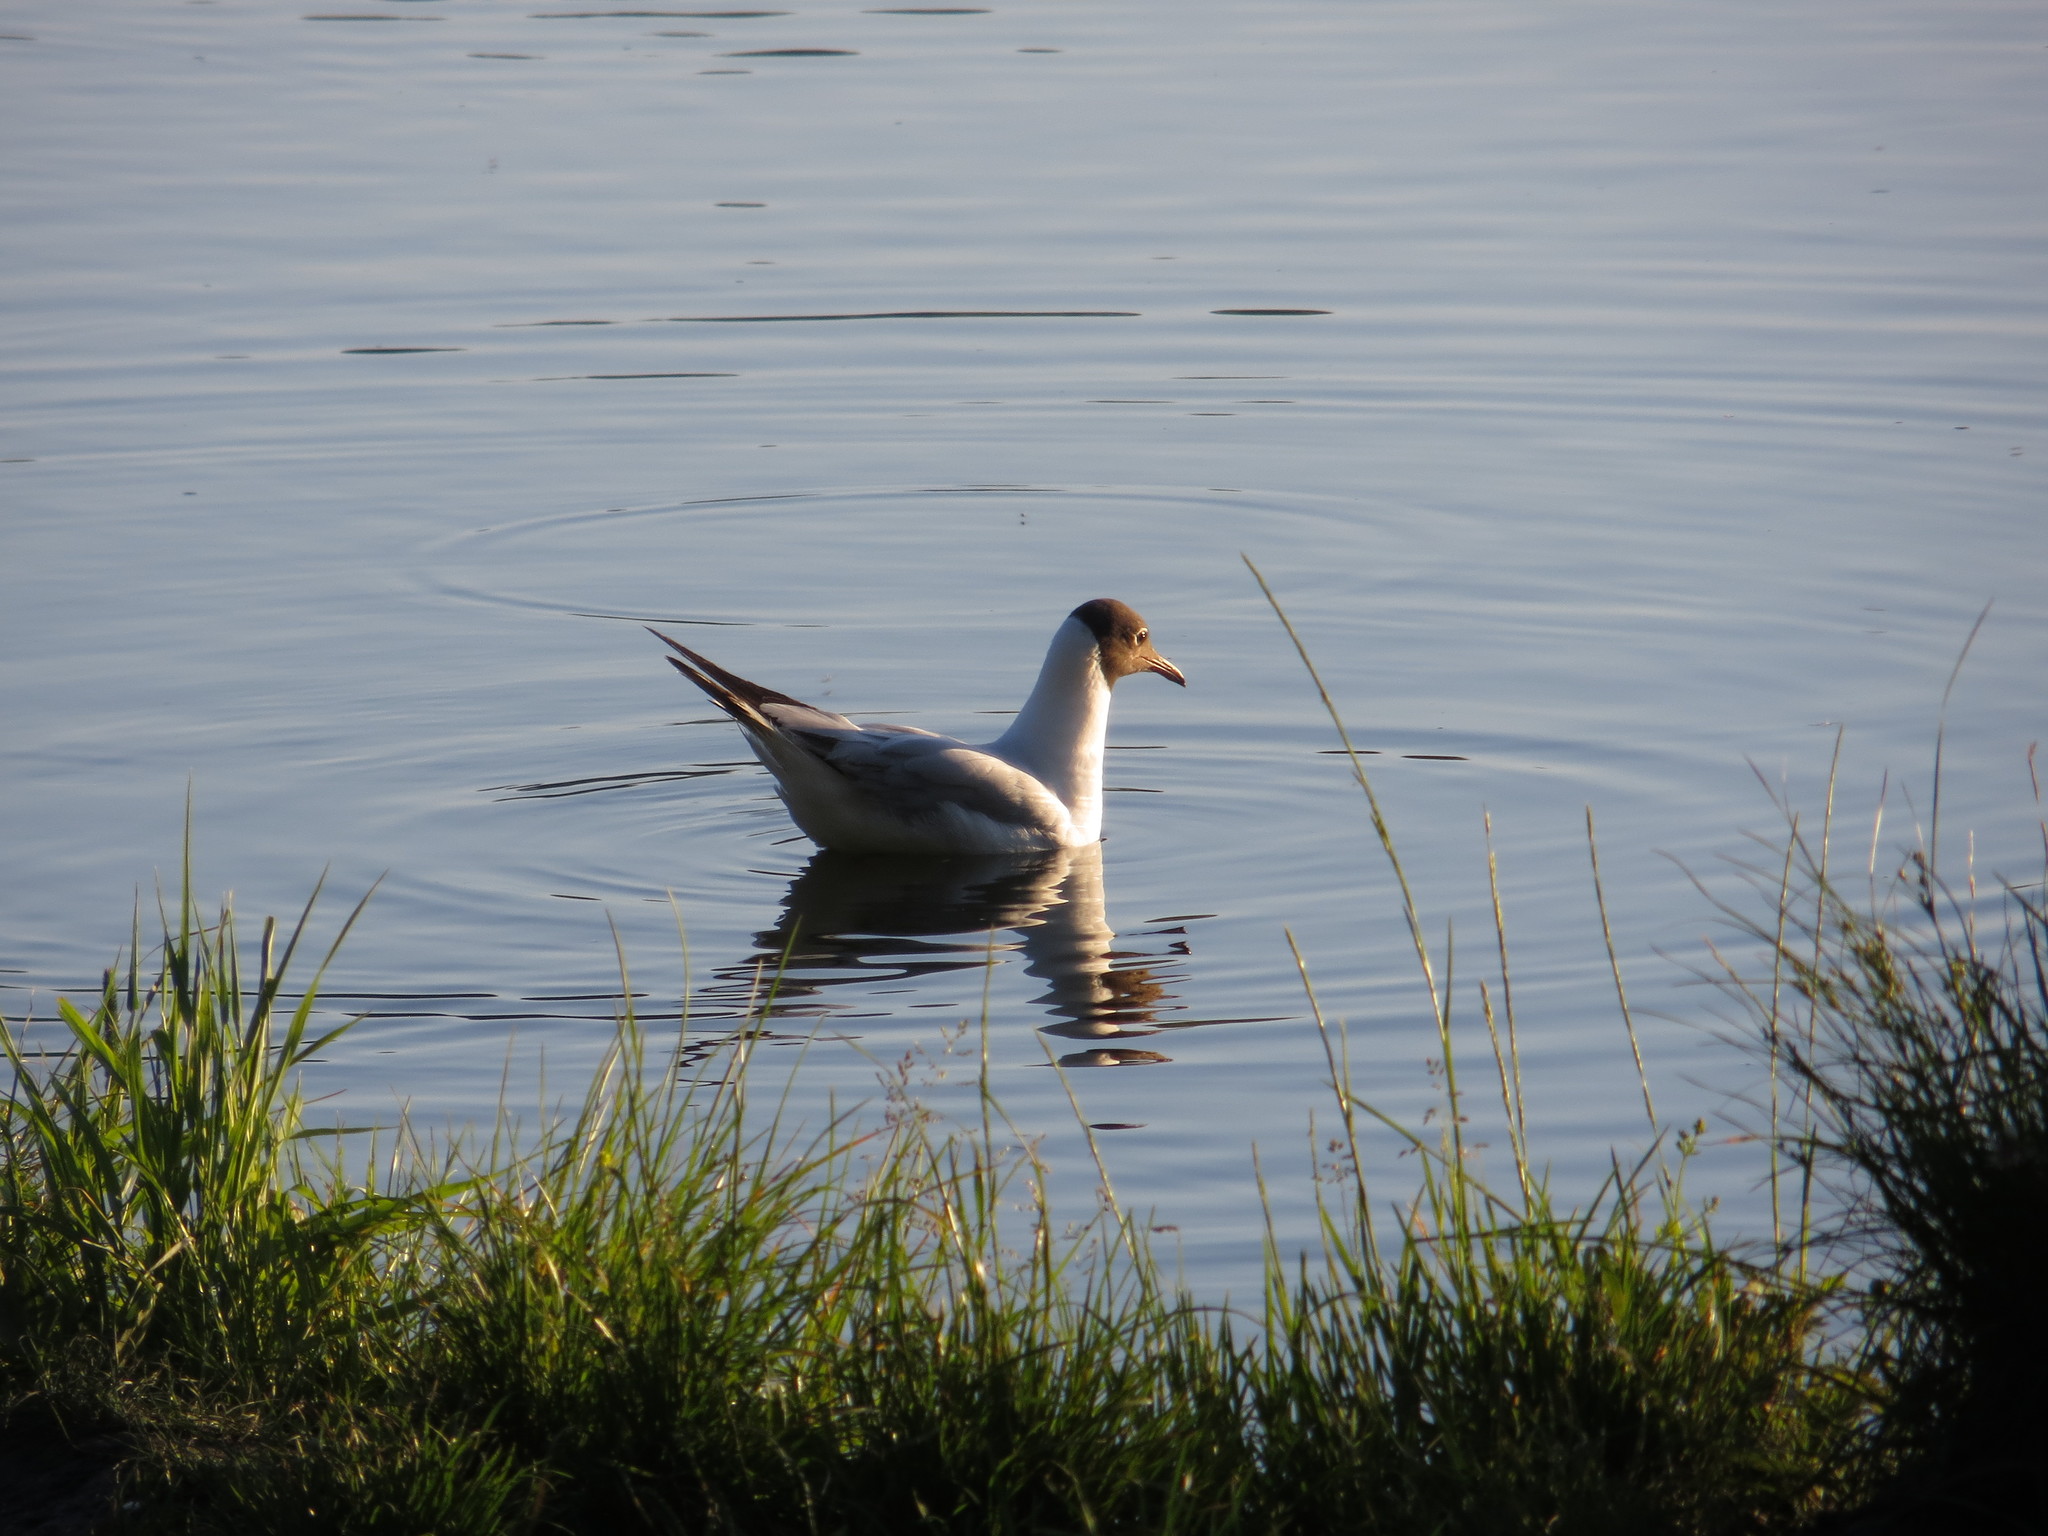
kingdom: Animalia
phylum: Chordata
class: Aves
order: Charadriiformes
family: Laridae
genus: Chroicocephalus
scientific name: Chroicocephalus ridibundus
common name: Black-headed gull
